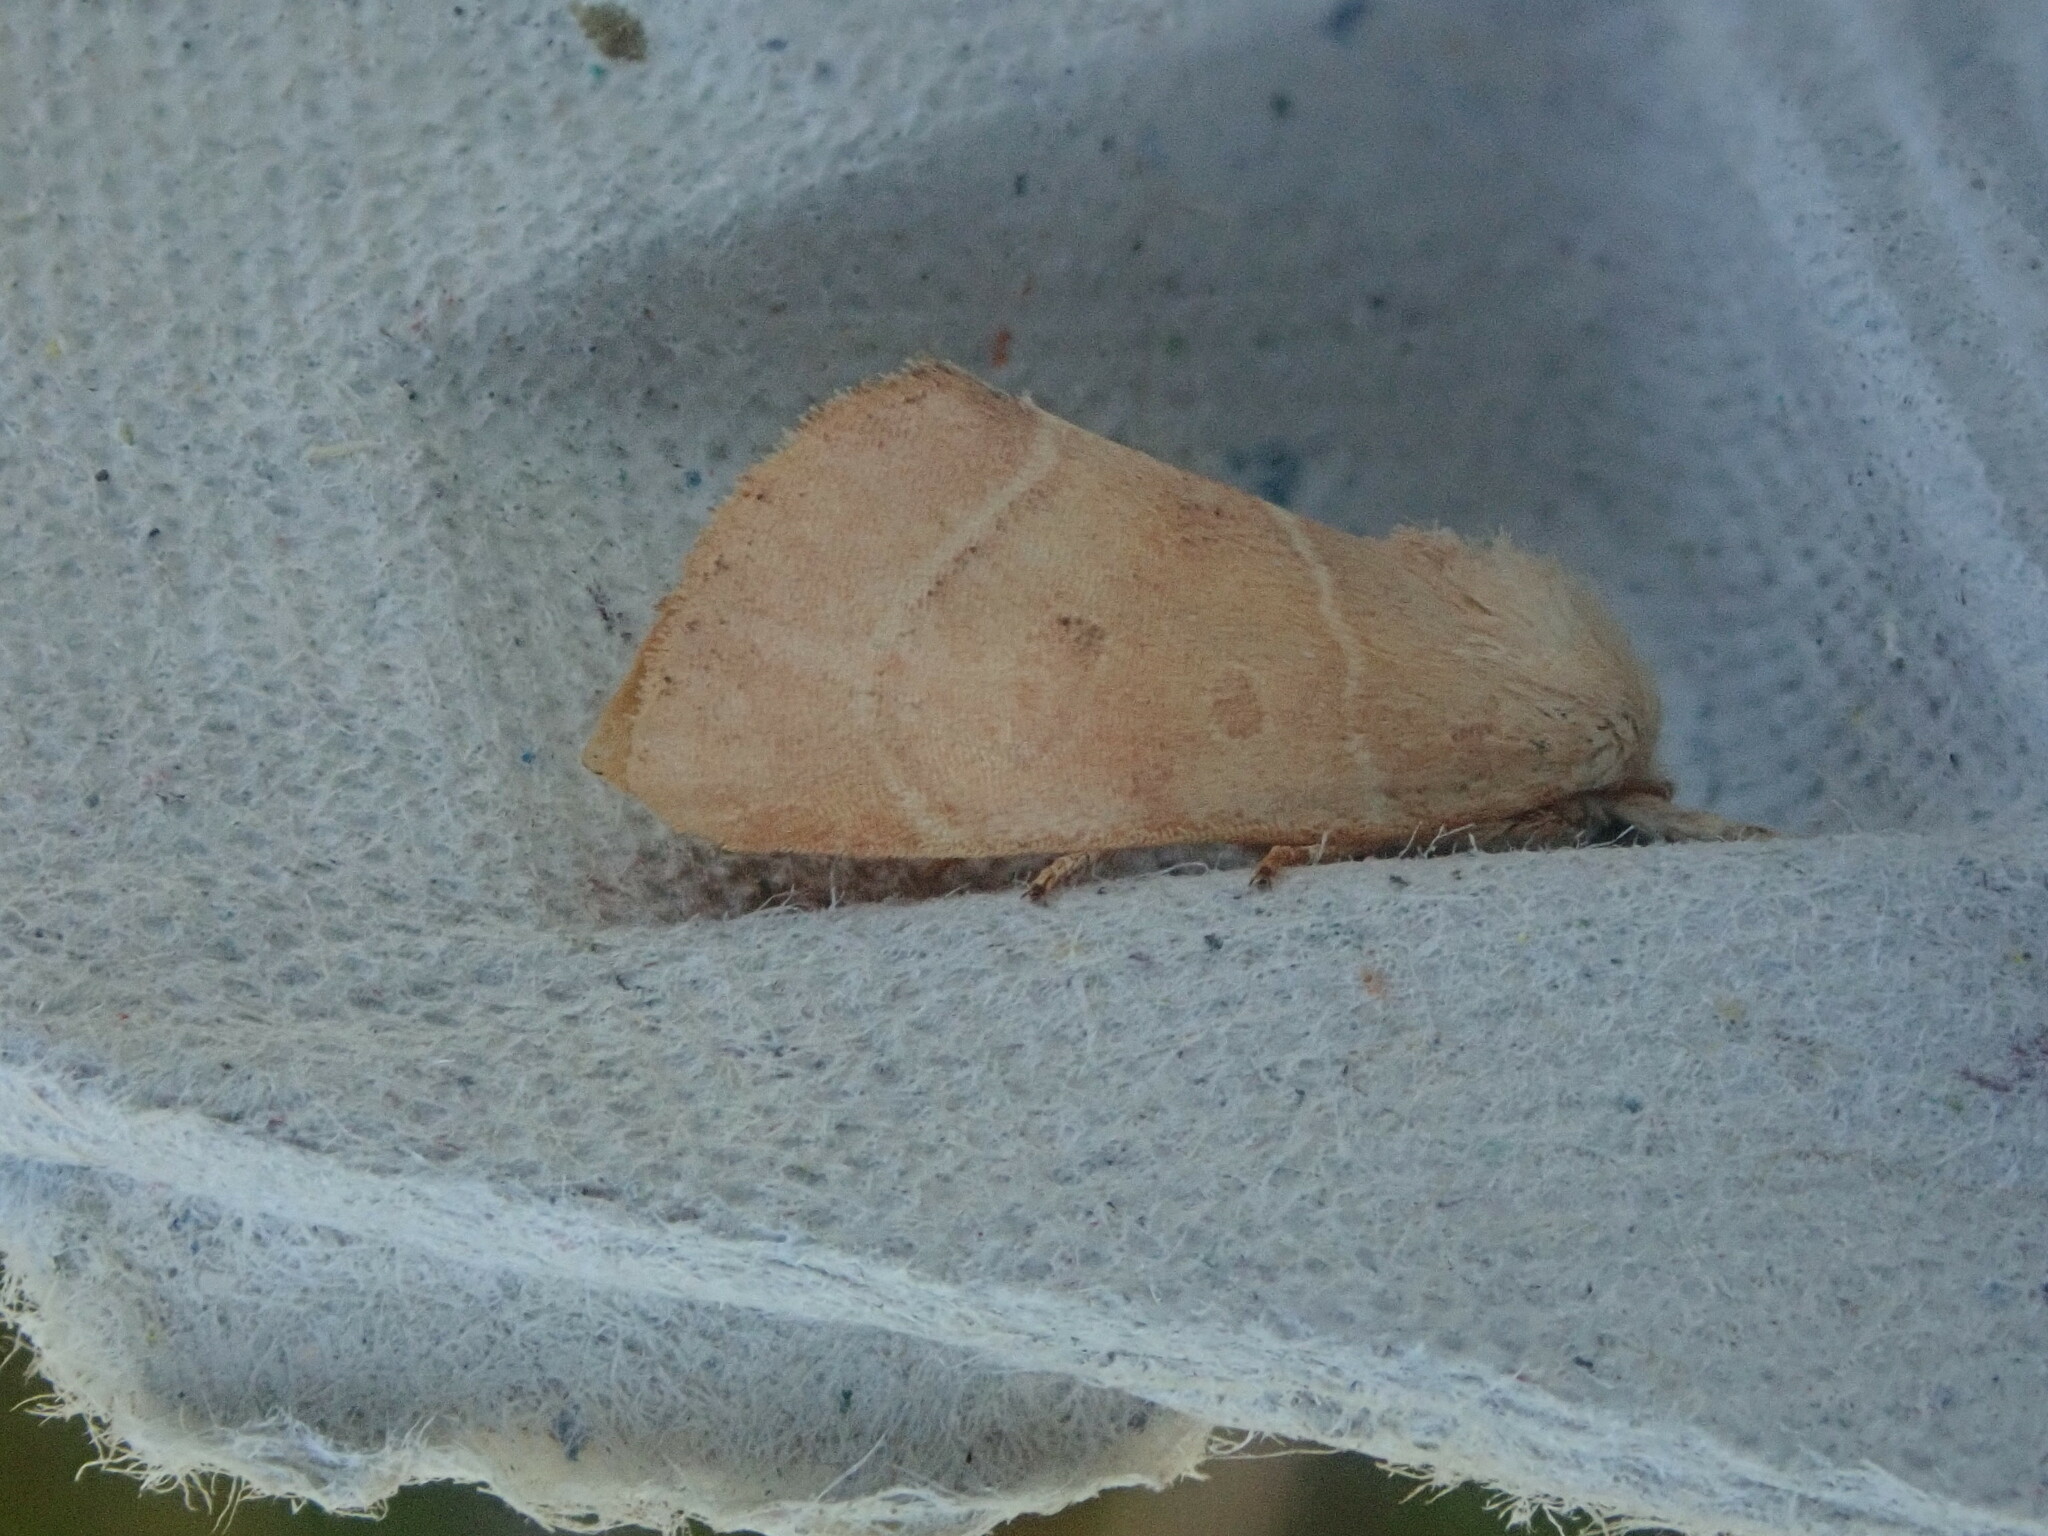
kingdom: Animalia
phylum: Arthropoda
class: Insecta
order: Lepidoptera
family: Noctuidae
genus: Cosmia
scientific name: Cosmia calami
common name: American dun-bar moth
